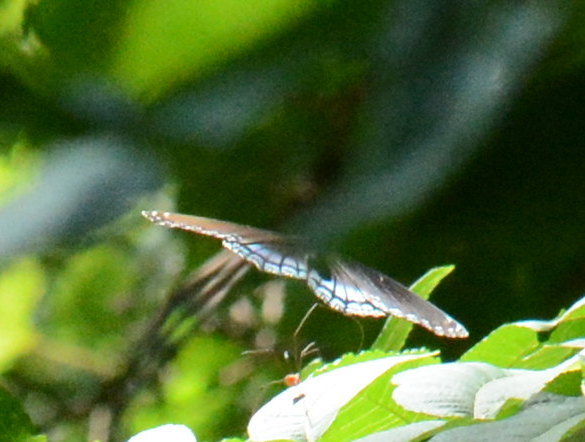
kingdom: Animalia
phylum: Arthropoda
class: Insecta
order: Lepidoptera
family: Nymphalidae
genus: Limenitis
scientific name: Limenitis astyanax
